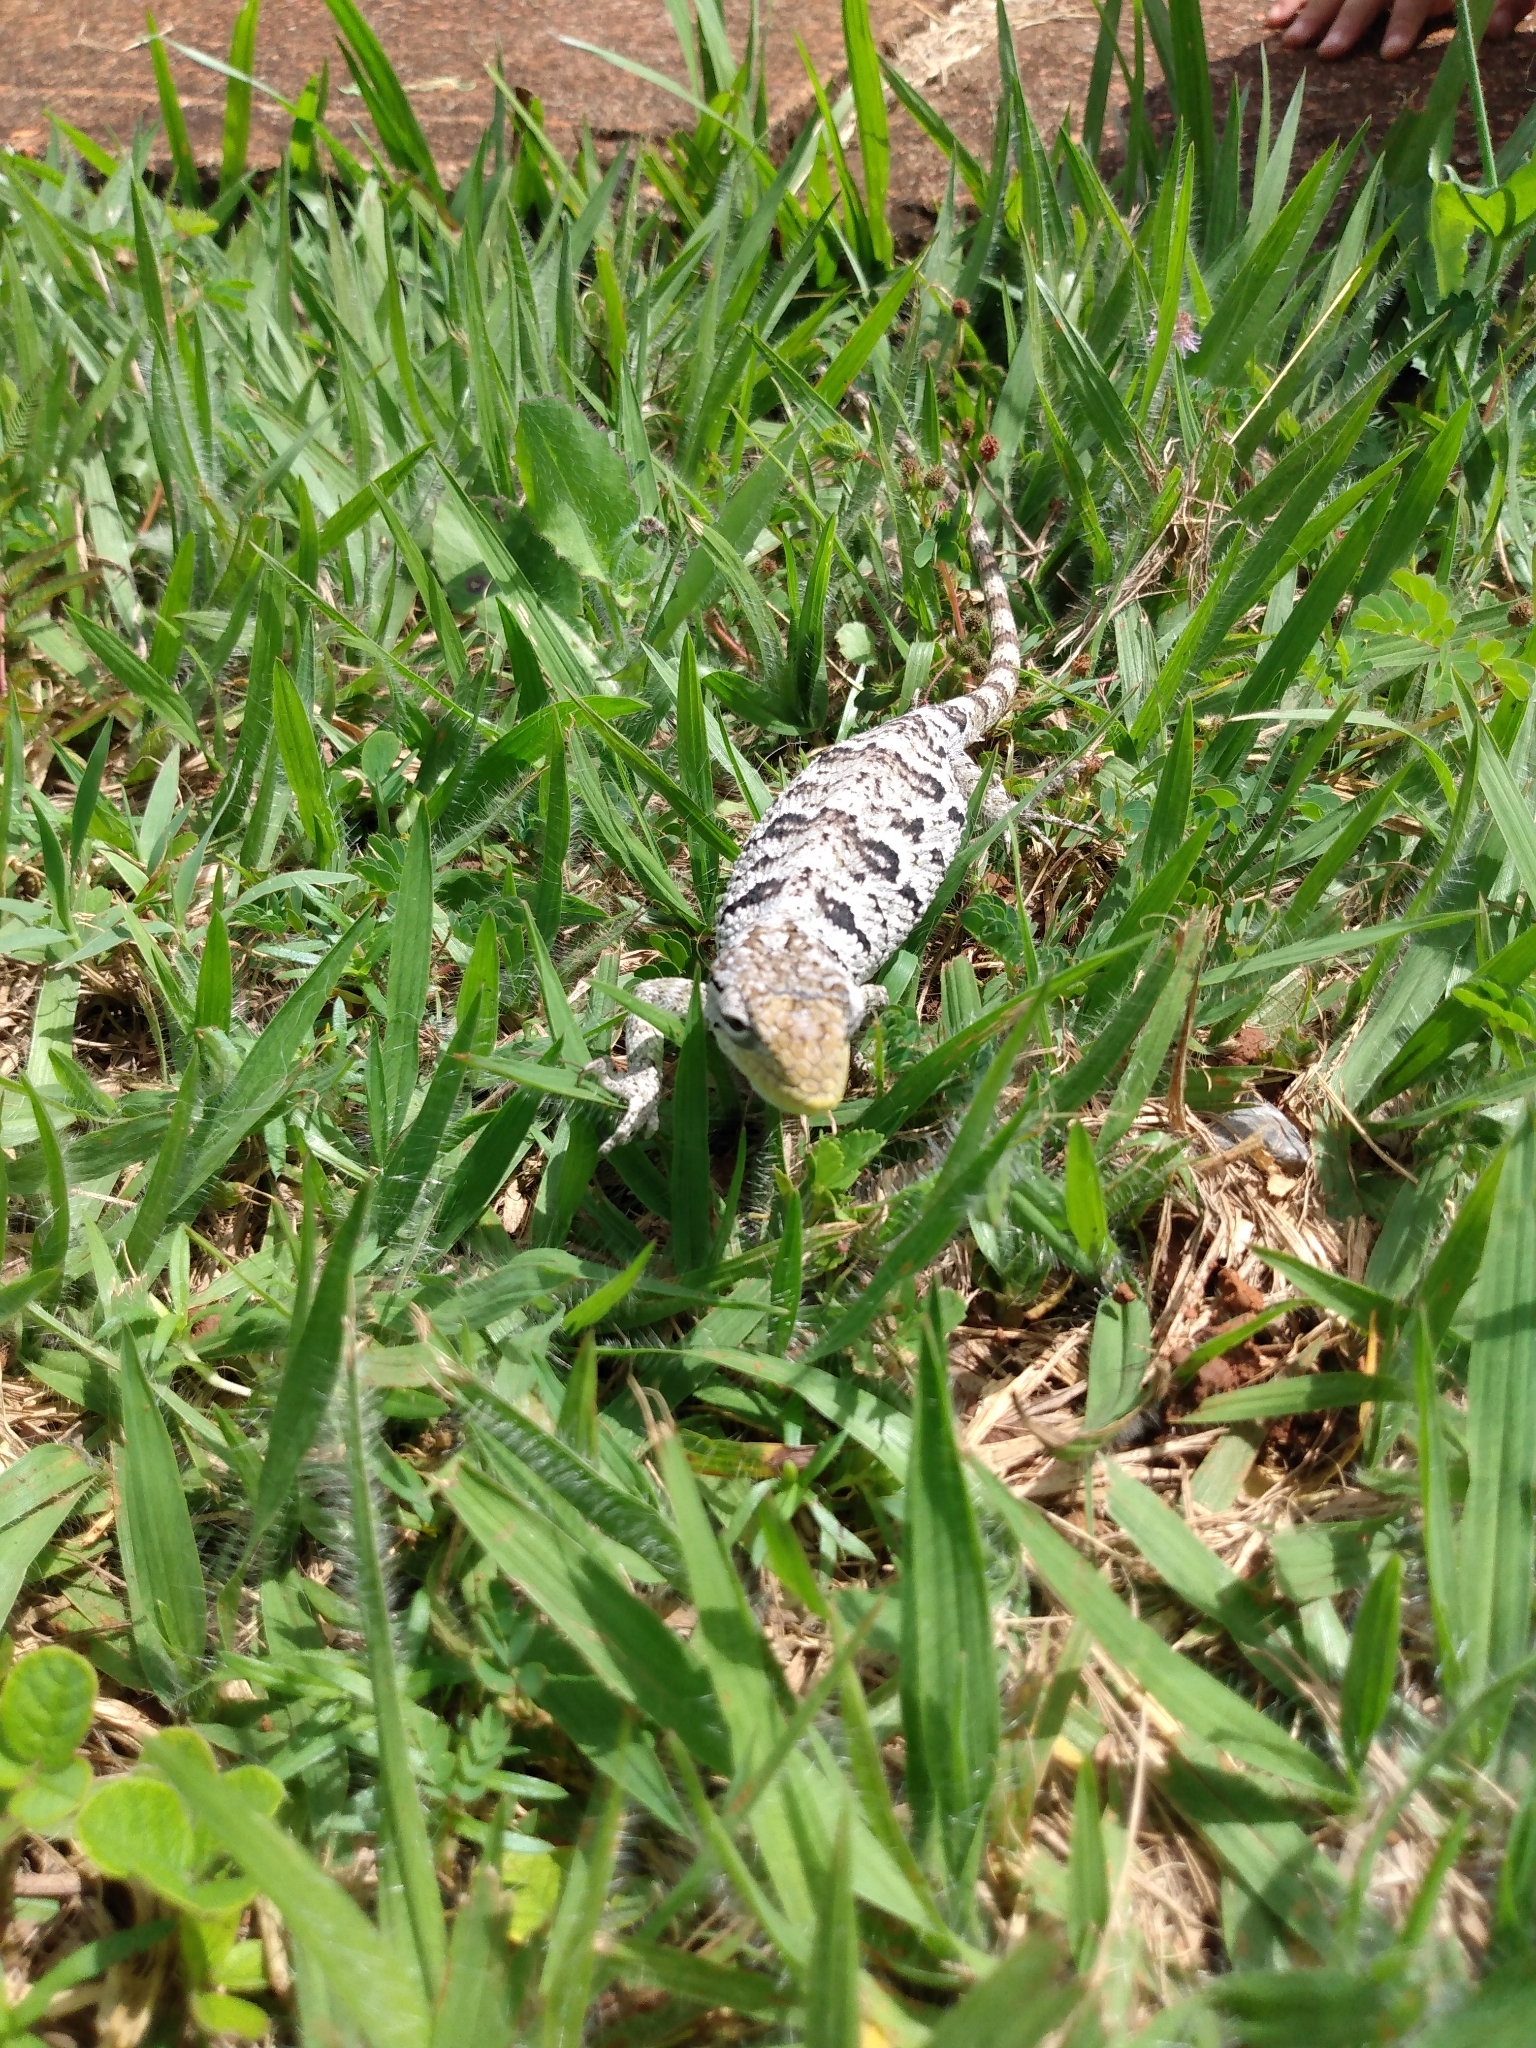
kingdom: Animalia
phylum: Chordata
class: Squamata
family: Polychrotidae
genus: Polychrus
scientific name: Polychrus acutirostris
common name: Brazilian bush anole
